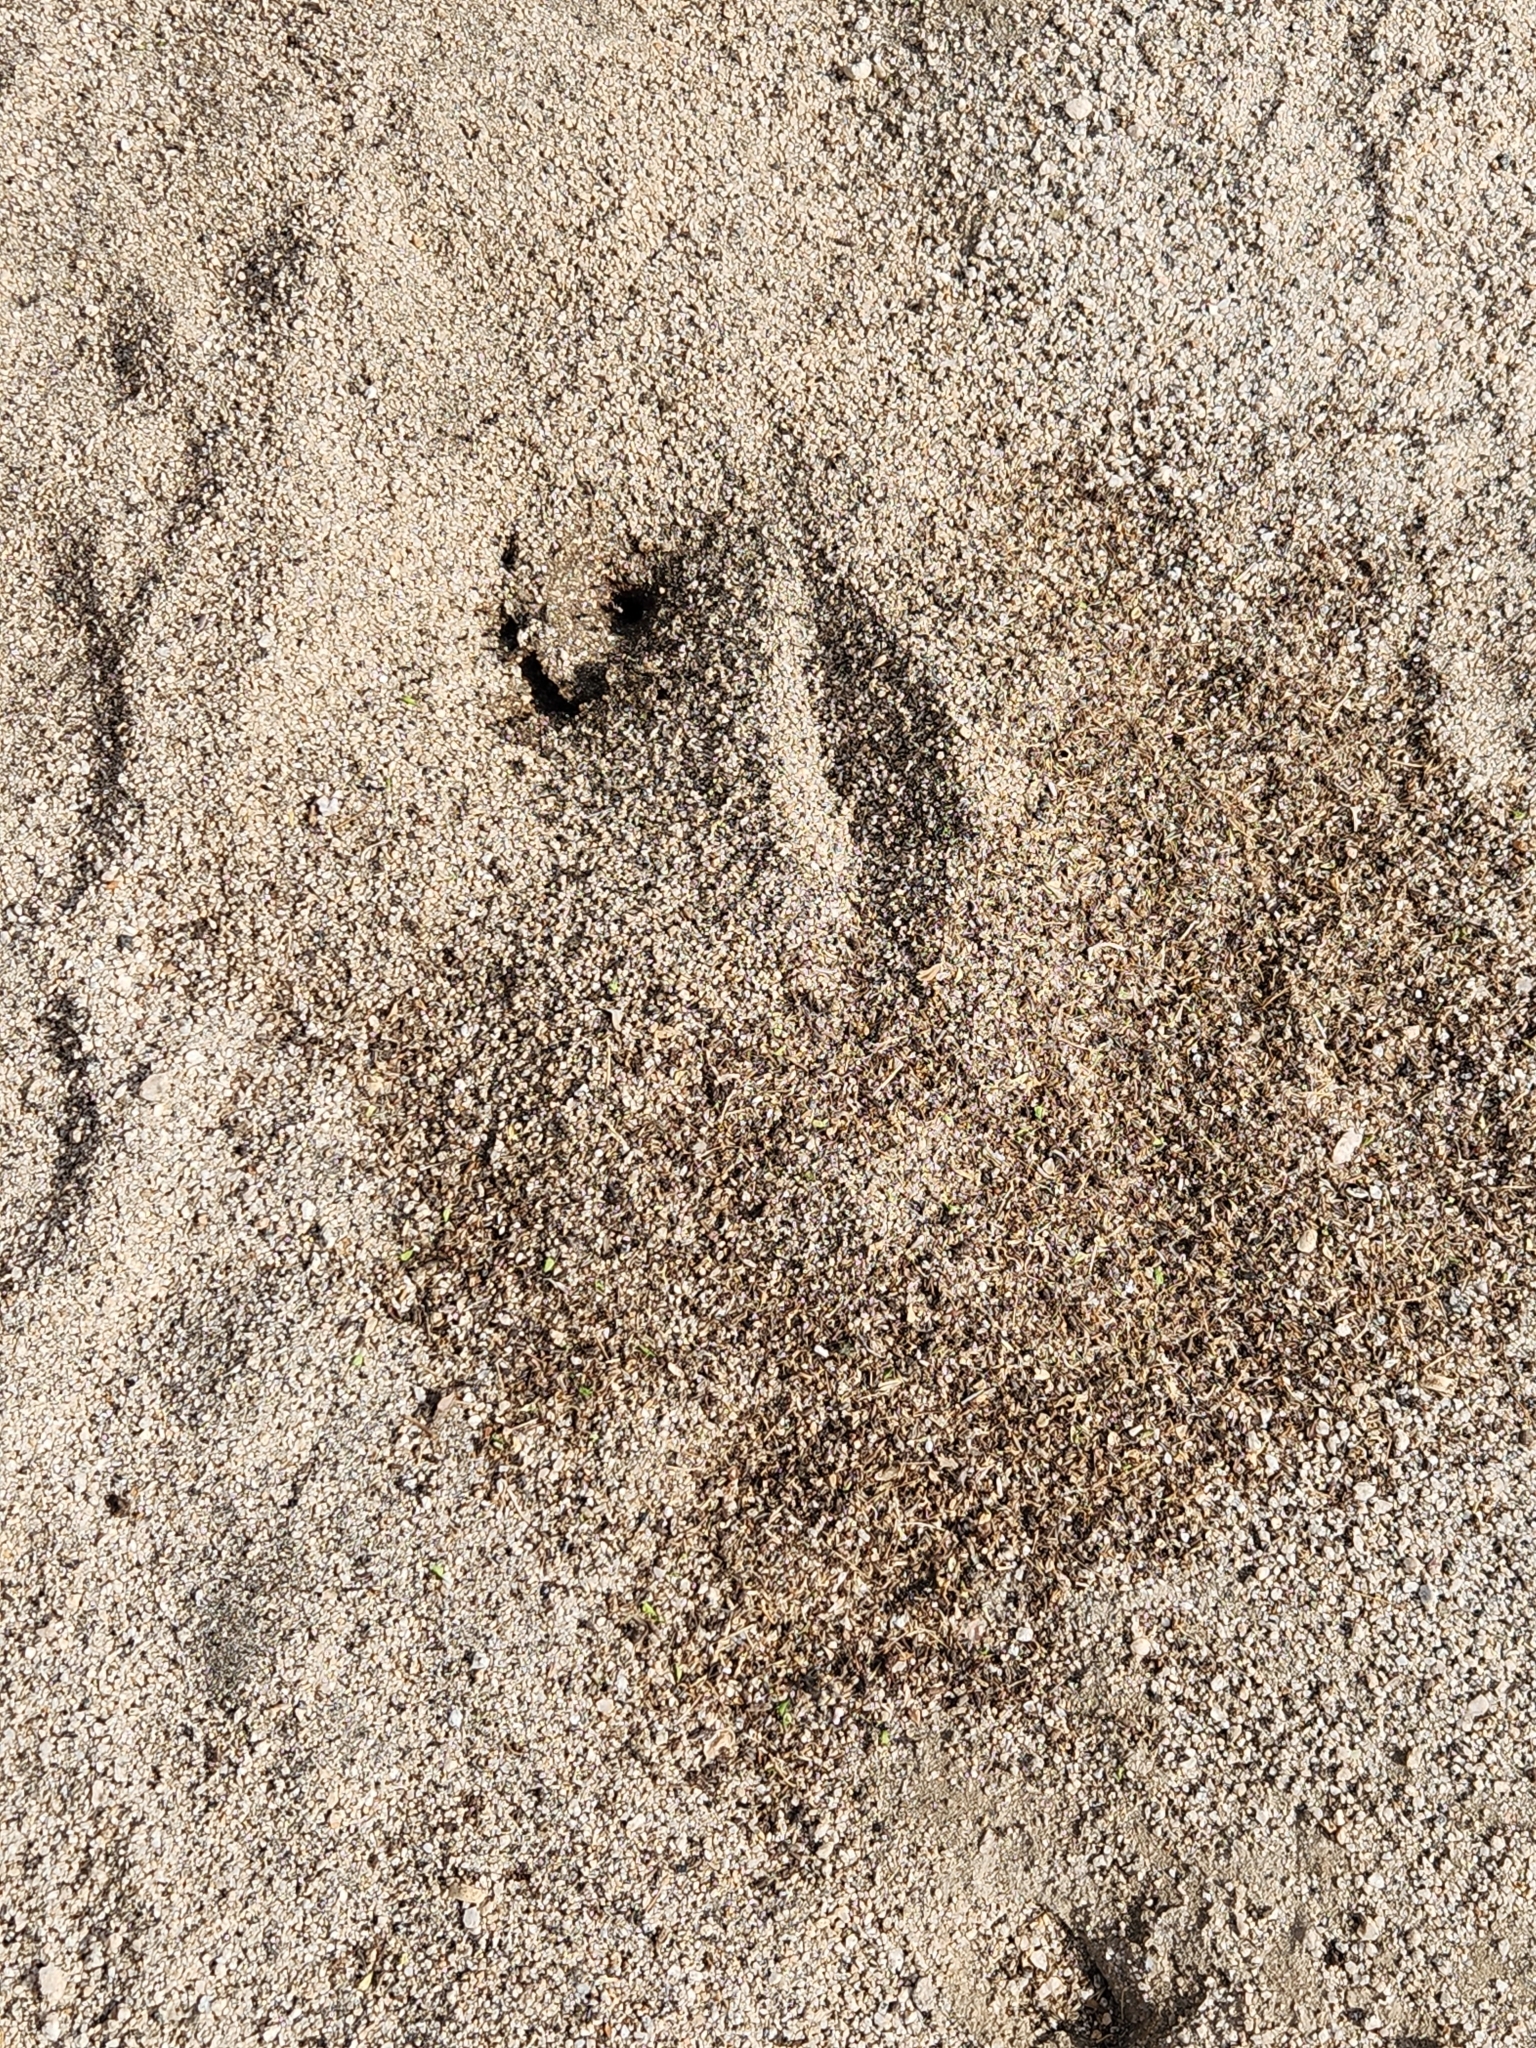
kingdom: Animalia
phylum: Arthropoda
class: Insecta
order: Hymenoptera
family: Formicidae
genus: Messor
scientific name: Messor pergandei
